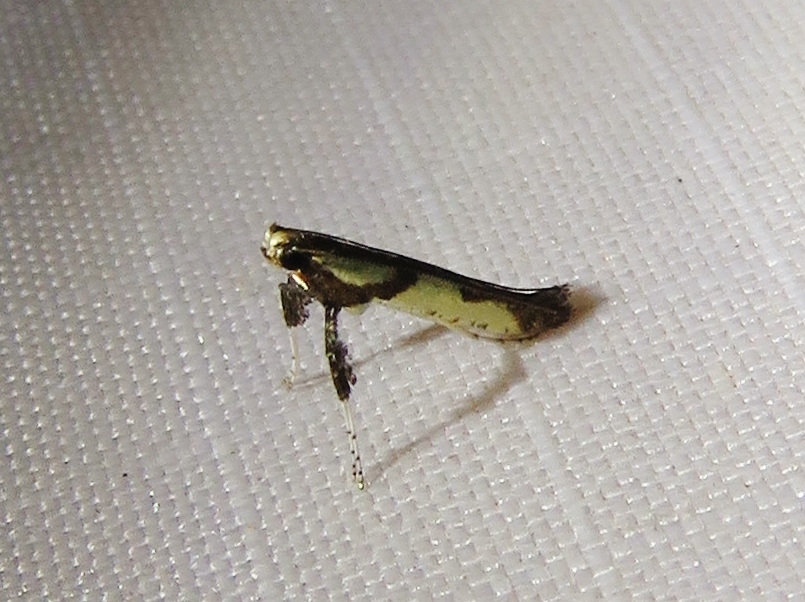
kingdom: Animalia
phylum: Arthropoda
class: Insecta
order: Lepidoptera
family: Gracillariidae
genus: Caloptilia
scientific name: Caloptilia blandella
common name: Walnut caloptilia moth
